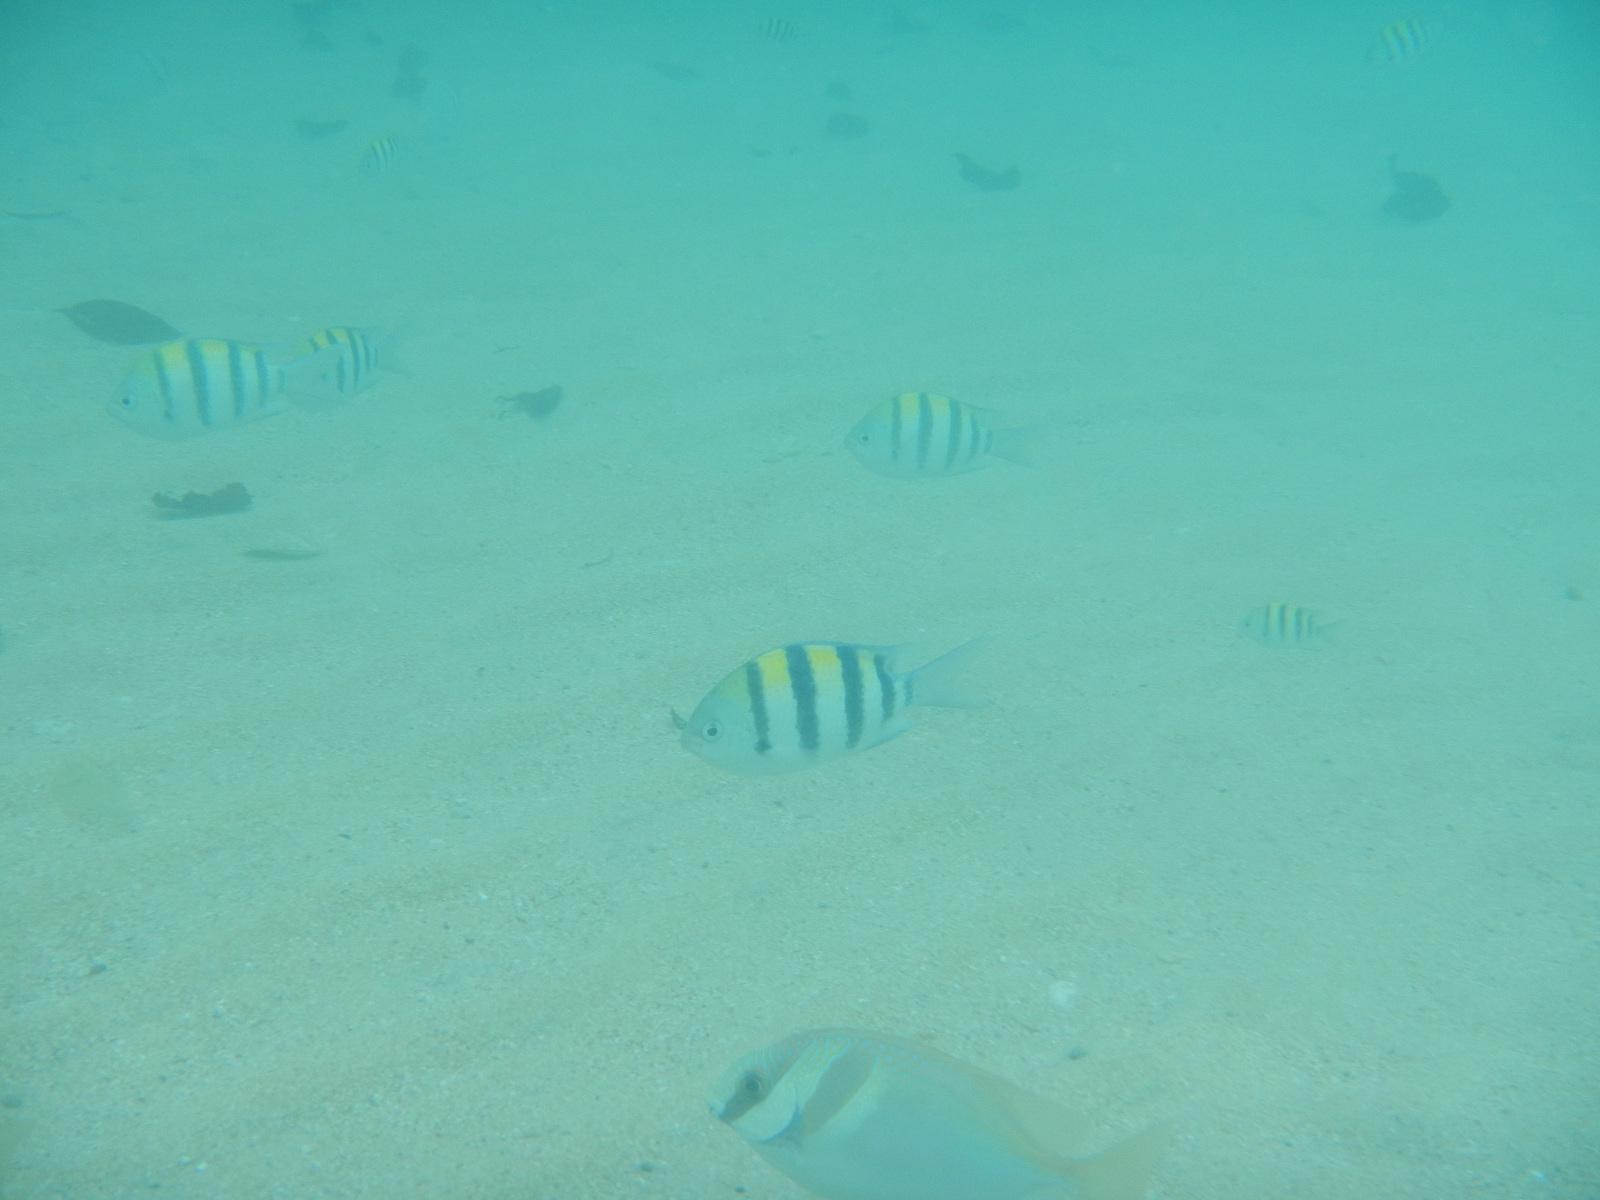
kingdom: Animalia
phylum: Chordata
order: Perciformes
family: Pomacentridae
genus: Abudefduf
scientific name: Abudefduf vaigiensis
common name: Indo-pacific sergeant
